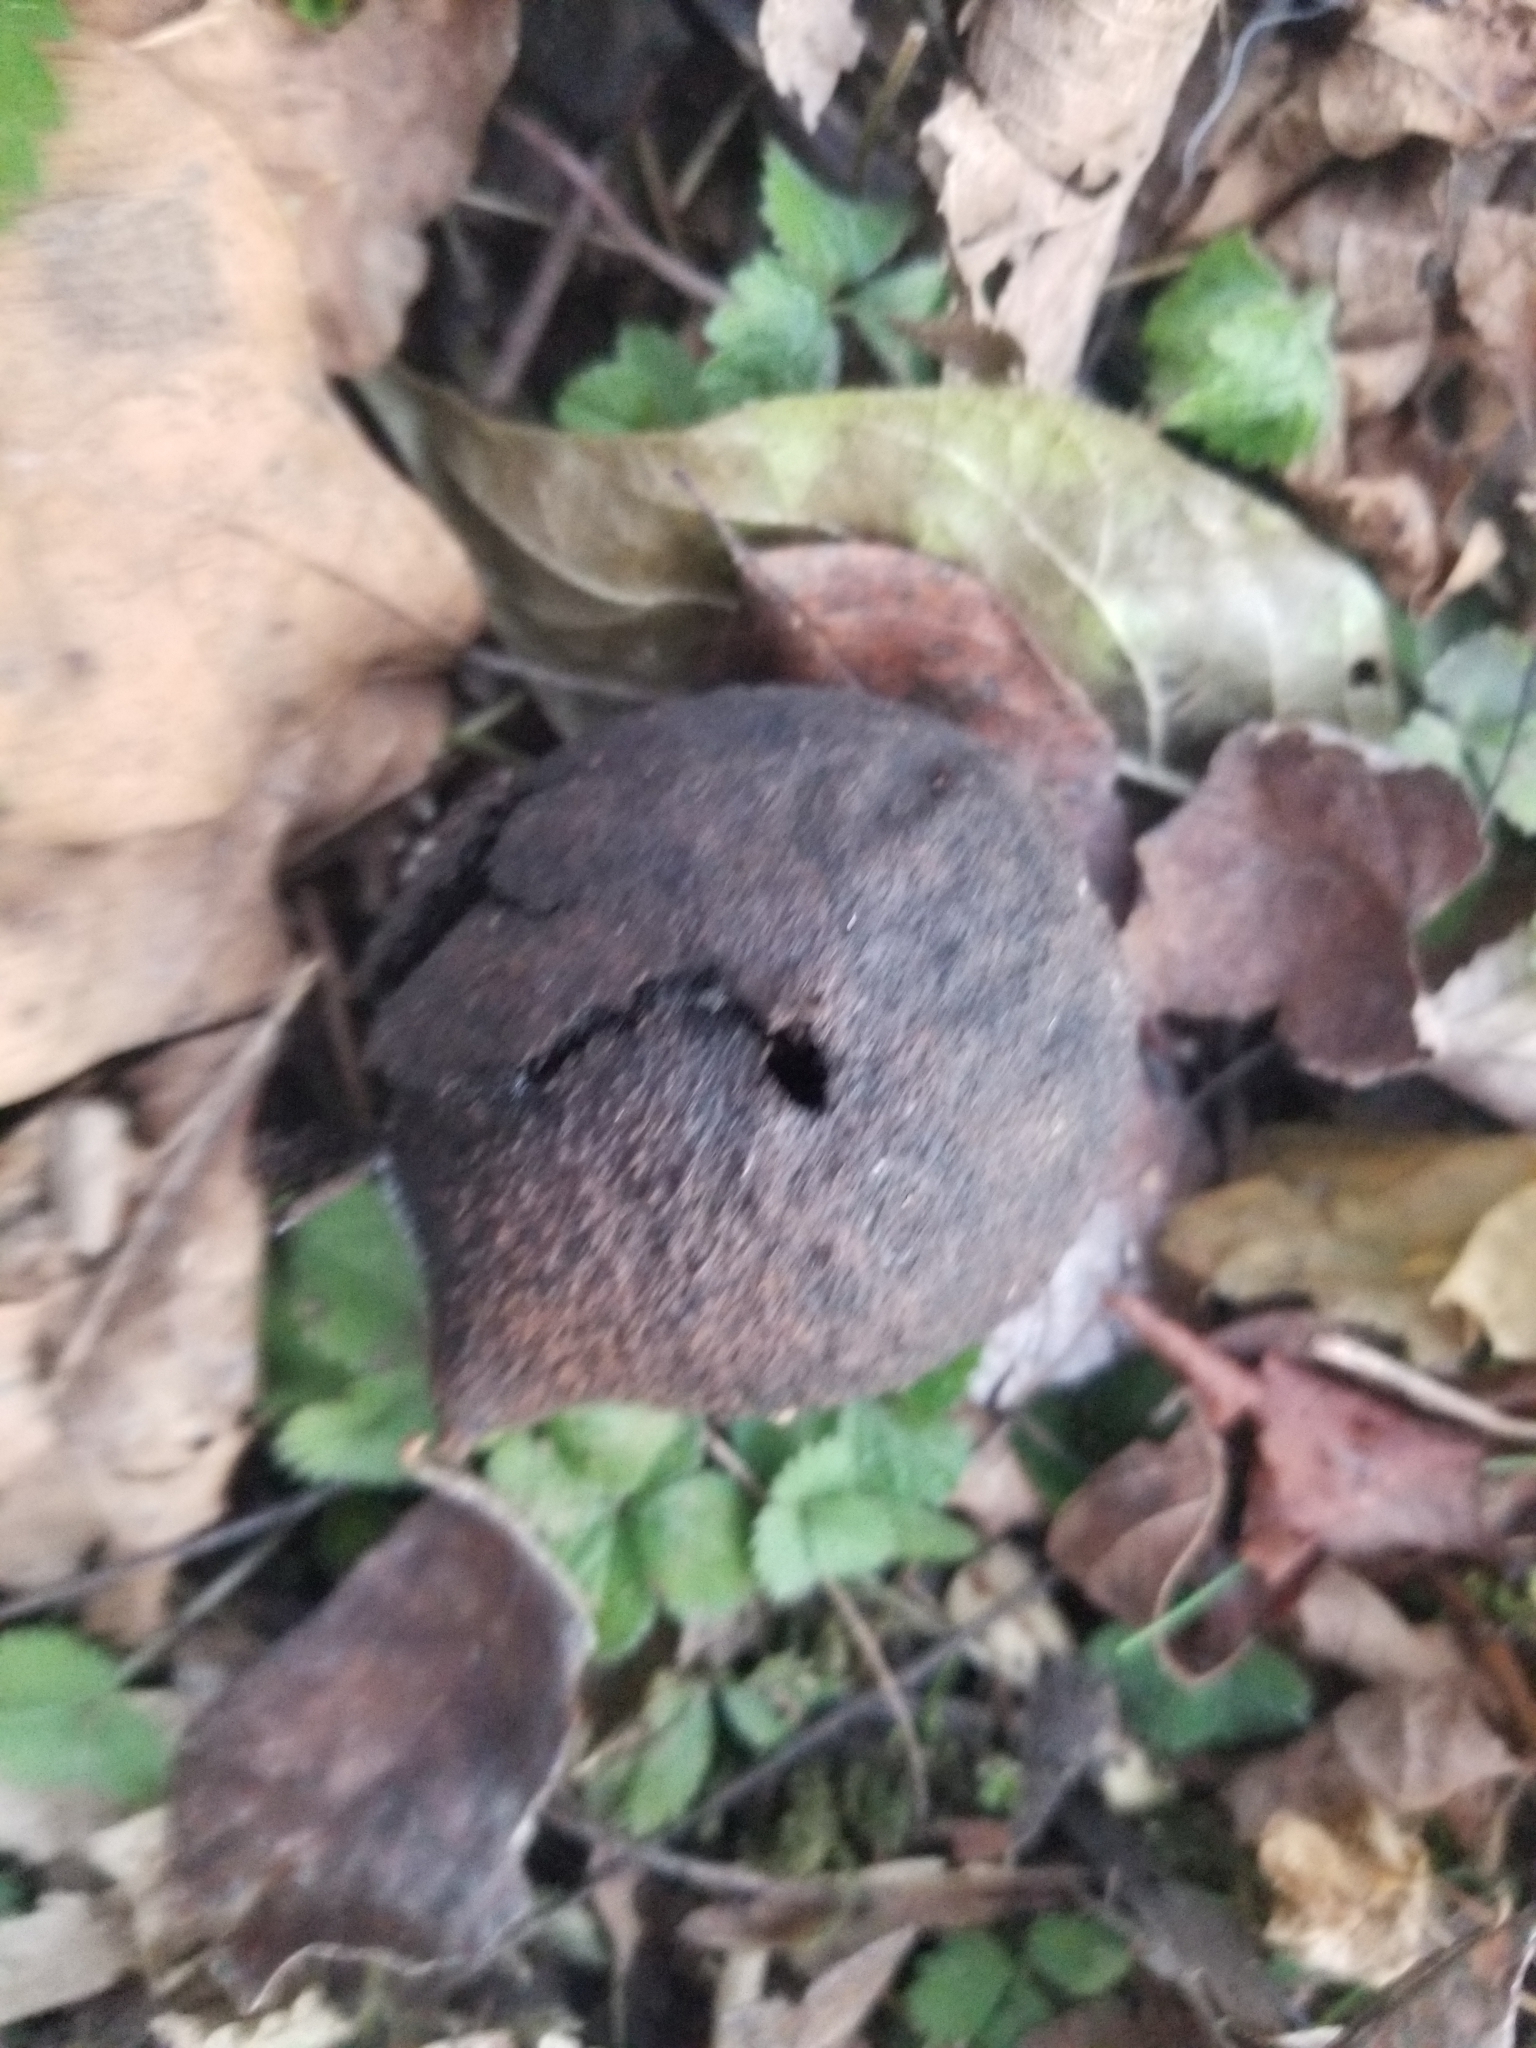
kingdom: Plantae
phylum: Tracheophyta
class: Magnoliopsida
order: Fagales
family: Juglandaceae
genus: Juglans
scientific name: Juglans nigra
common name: Black walnut
